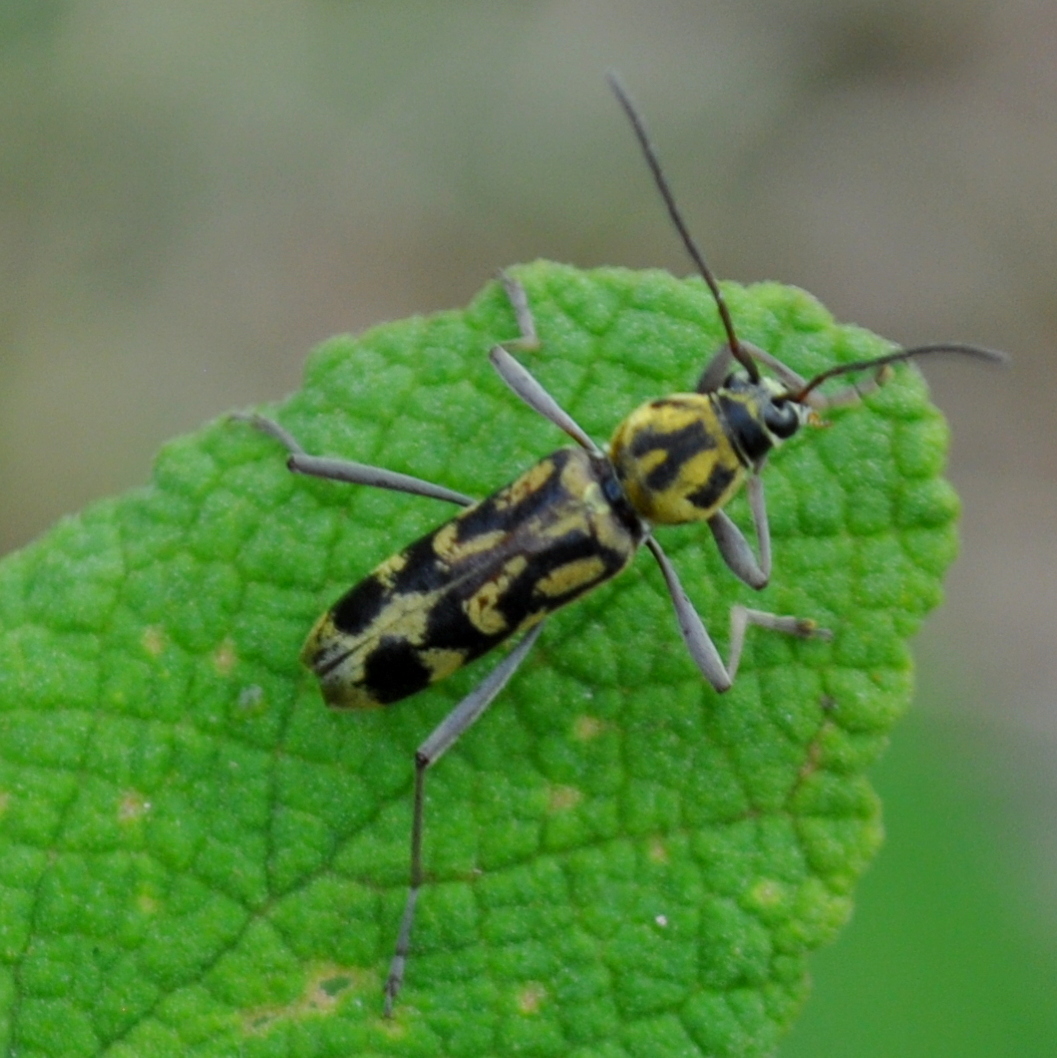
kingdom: Animalia
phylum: Arthropoda
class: Insecta
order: Coleoptera
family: Cerambycidae
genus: Chlorophorus
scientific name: Chlorophorus annularis
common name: Bamboo longhorn beetle
